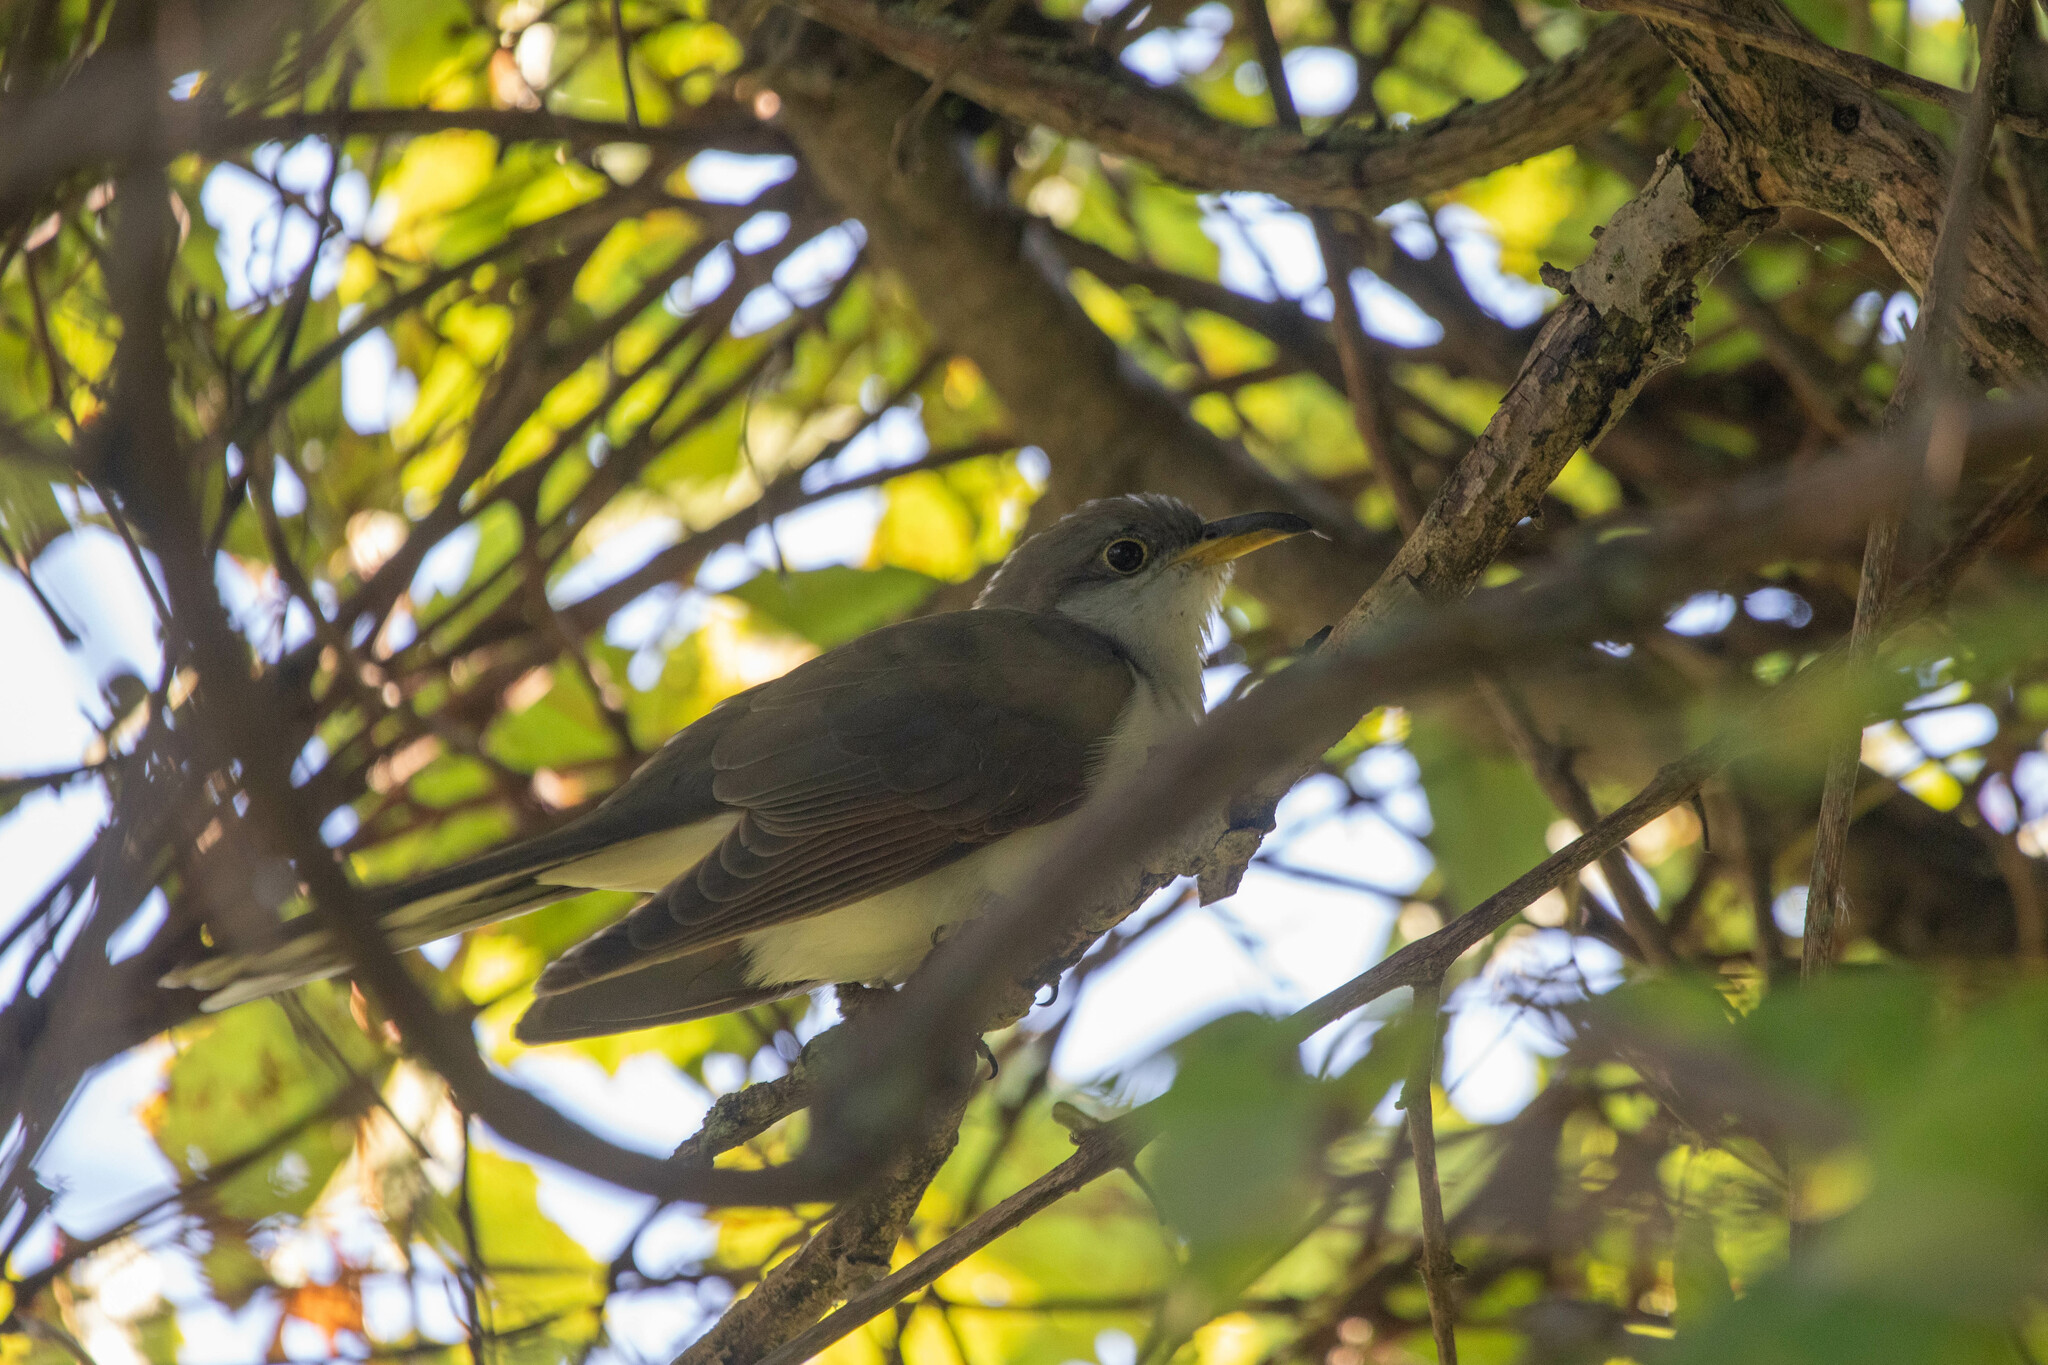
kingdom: Animalia
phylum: Chordata
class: Aves
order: Cuculiformes
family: Cuculidae
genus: Coccyzus
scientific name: Coccyzus americanus
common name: Yellow-billed cuckoo
